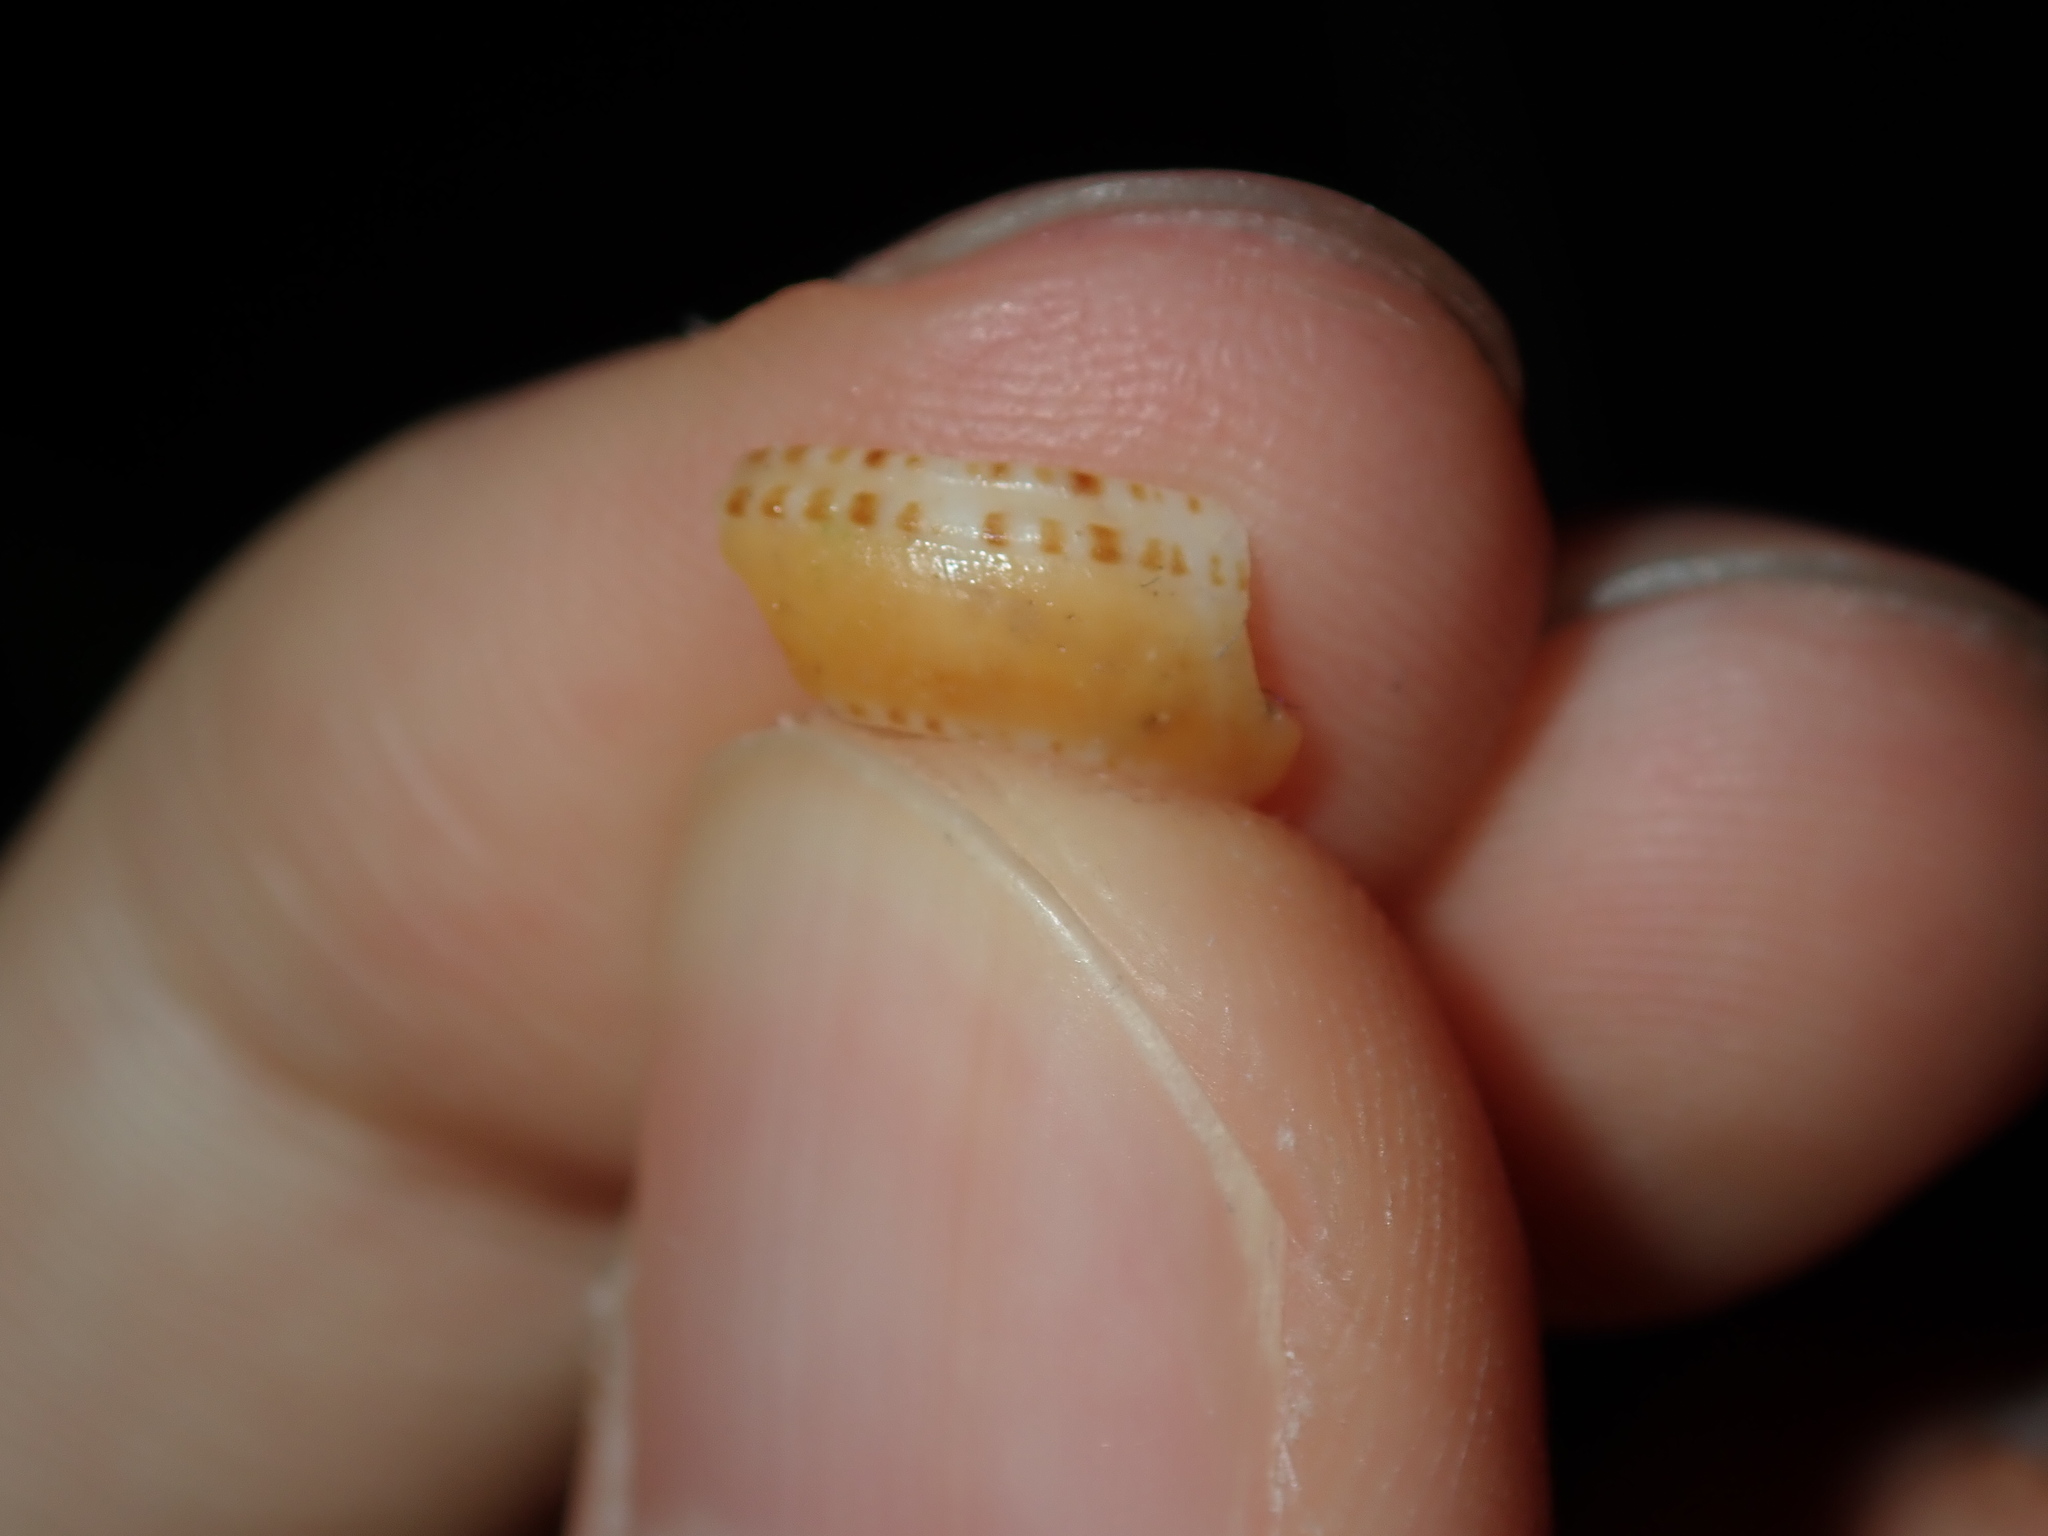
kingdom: Animalia
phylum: Mollusca
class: Gastropoda
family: Architectonicidae
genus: Philippia
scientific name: Philippia lutea
